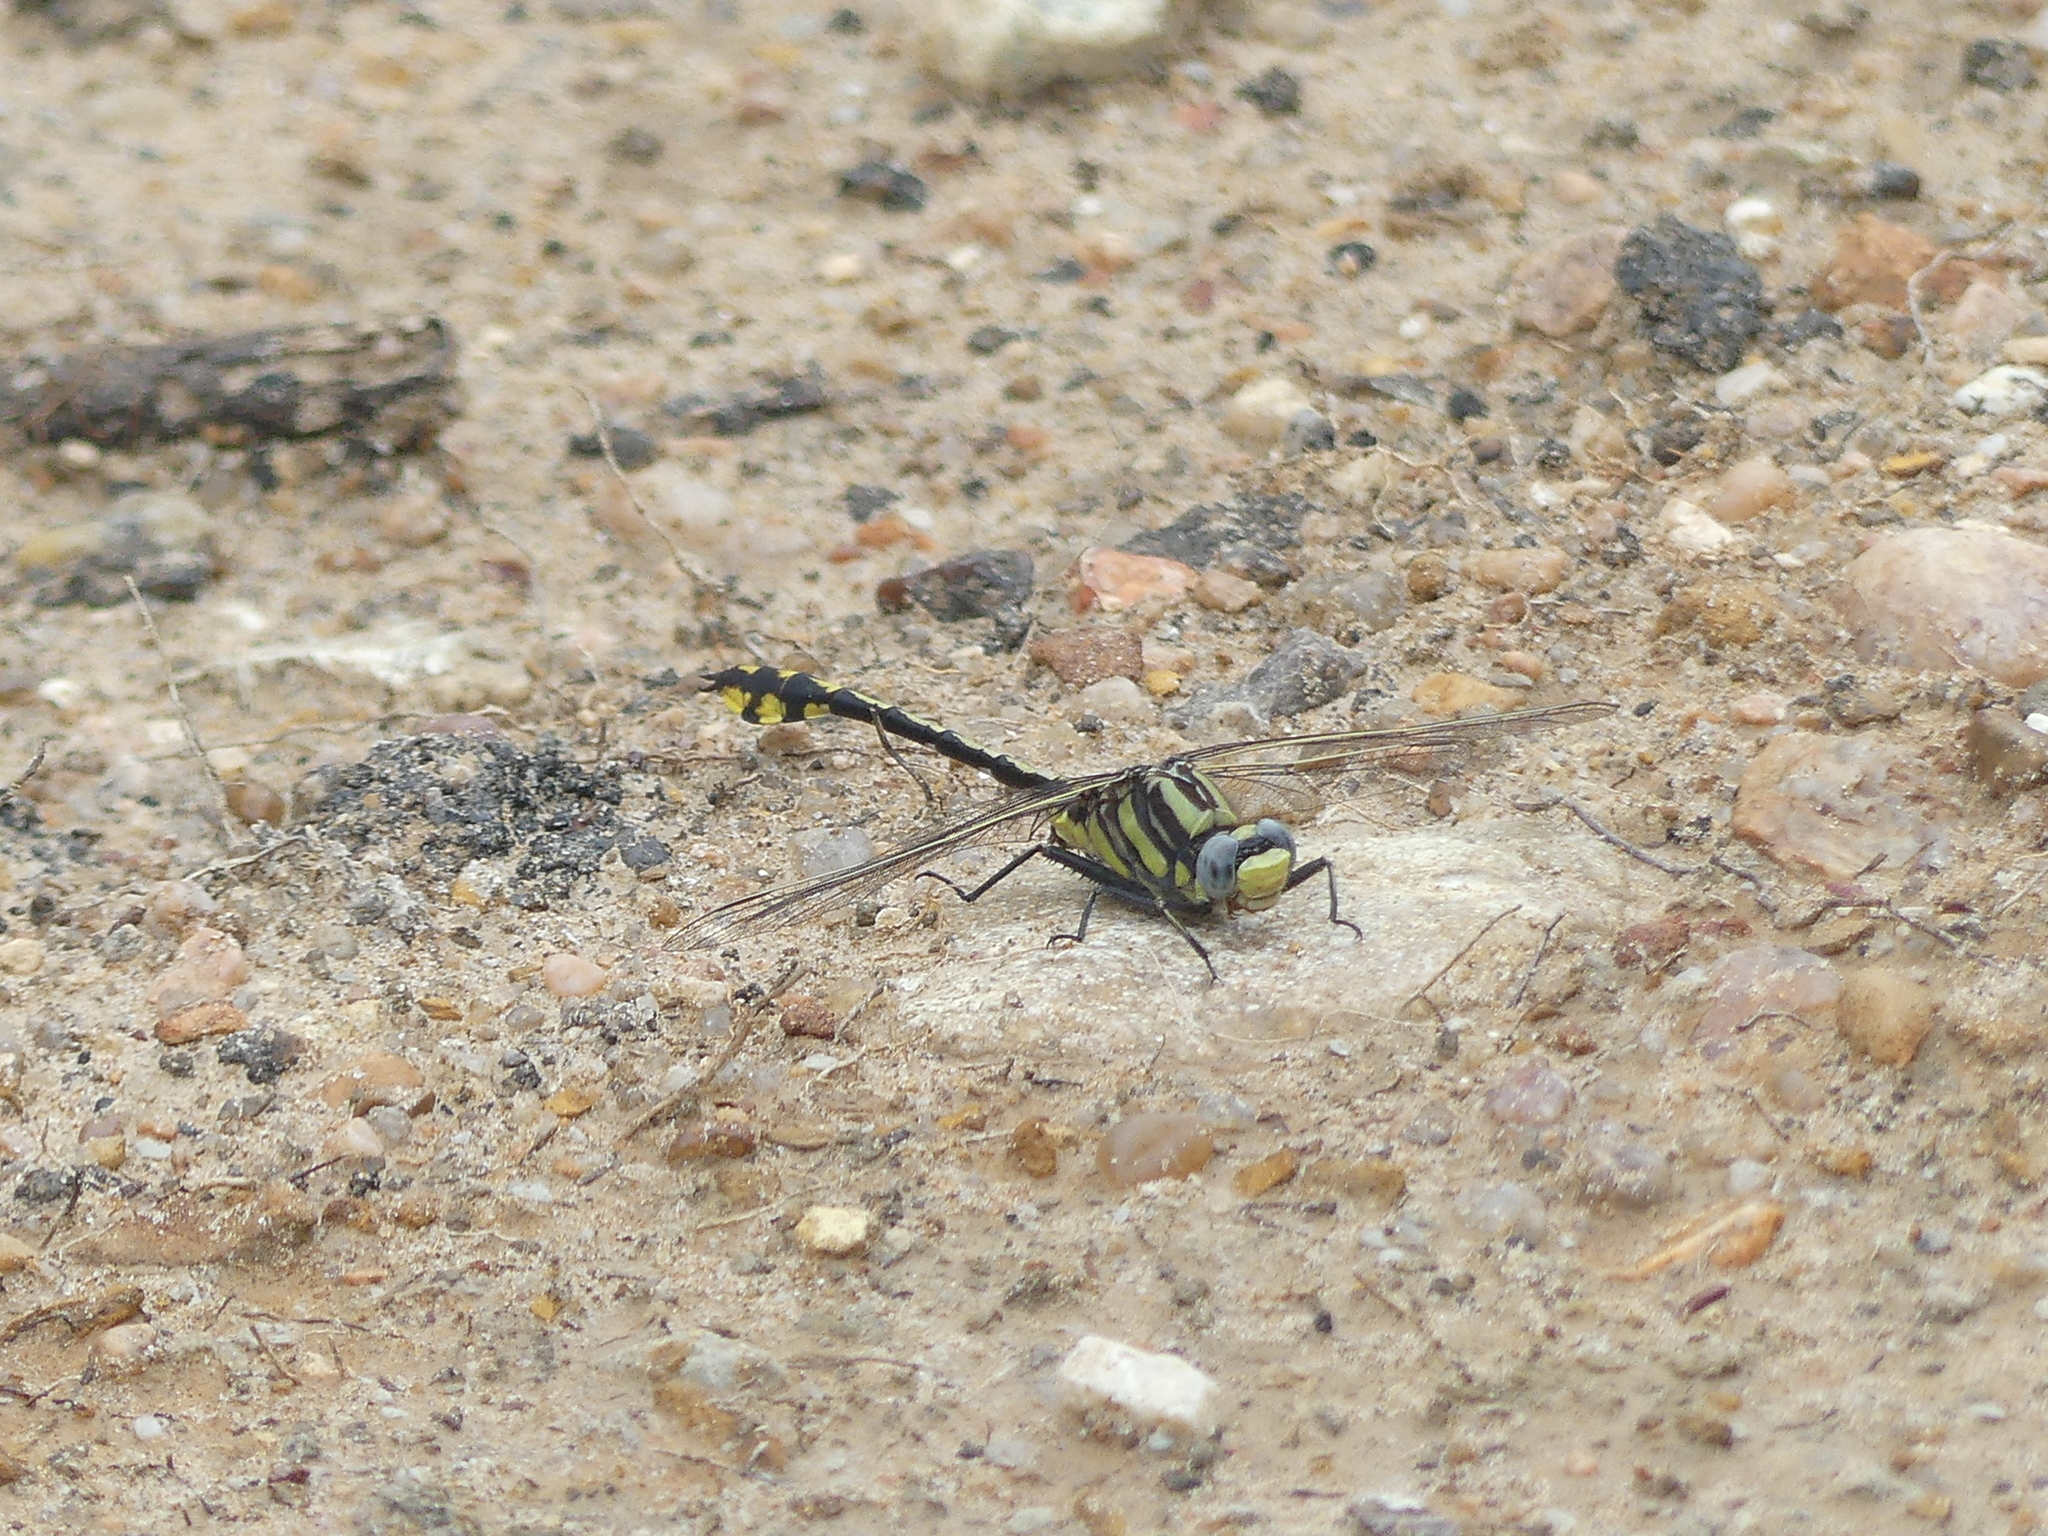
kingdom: Animalia
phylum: Arthropoda
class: Insecta
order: Odonata
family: Gomphidae
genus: Gomphurus
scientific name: Gomphurus externus
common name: Plains clubtail
